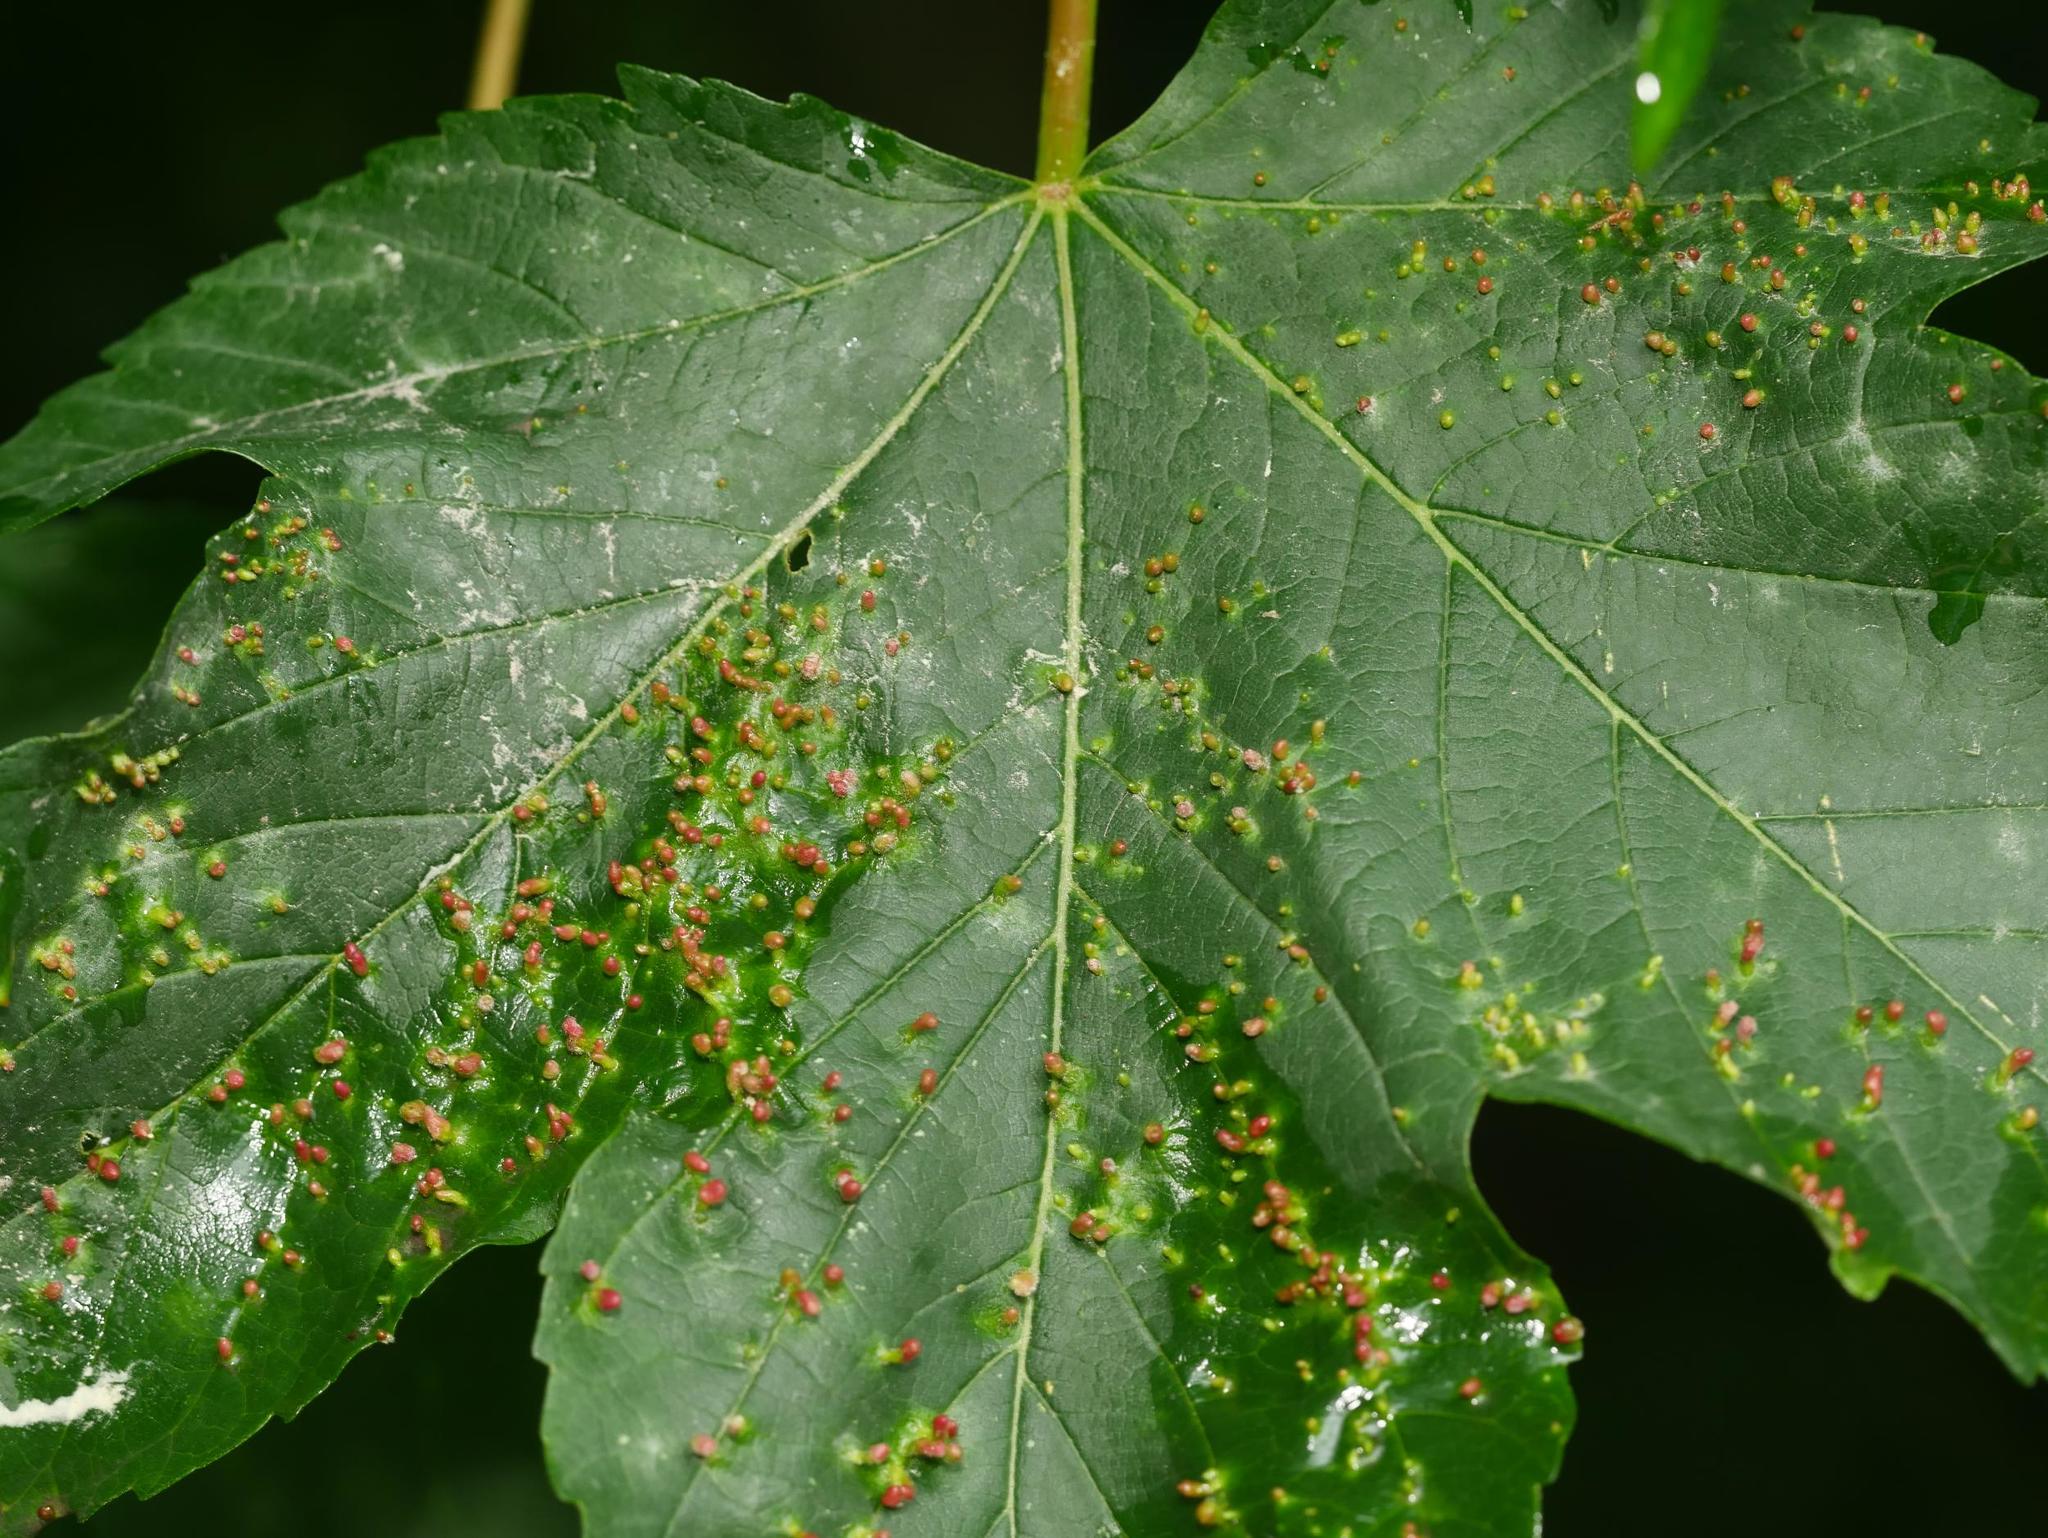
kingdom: Animalia
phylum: Arthropoda
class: Arachnida
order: Trombidiformes
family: Eriophyidae
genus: Aceria
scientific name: Aceria cephaloneus
